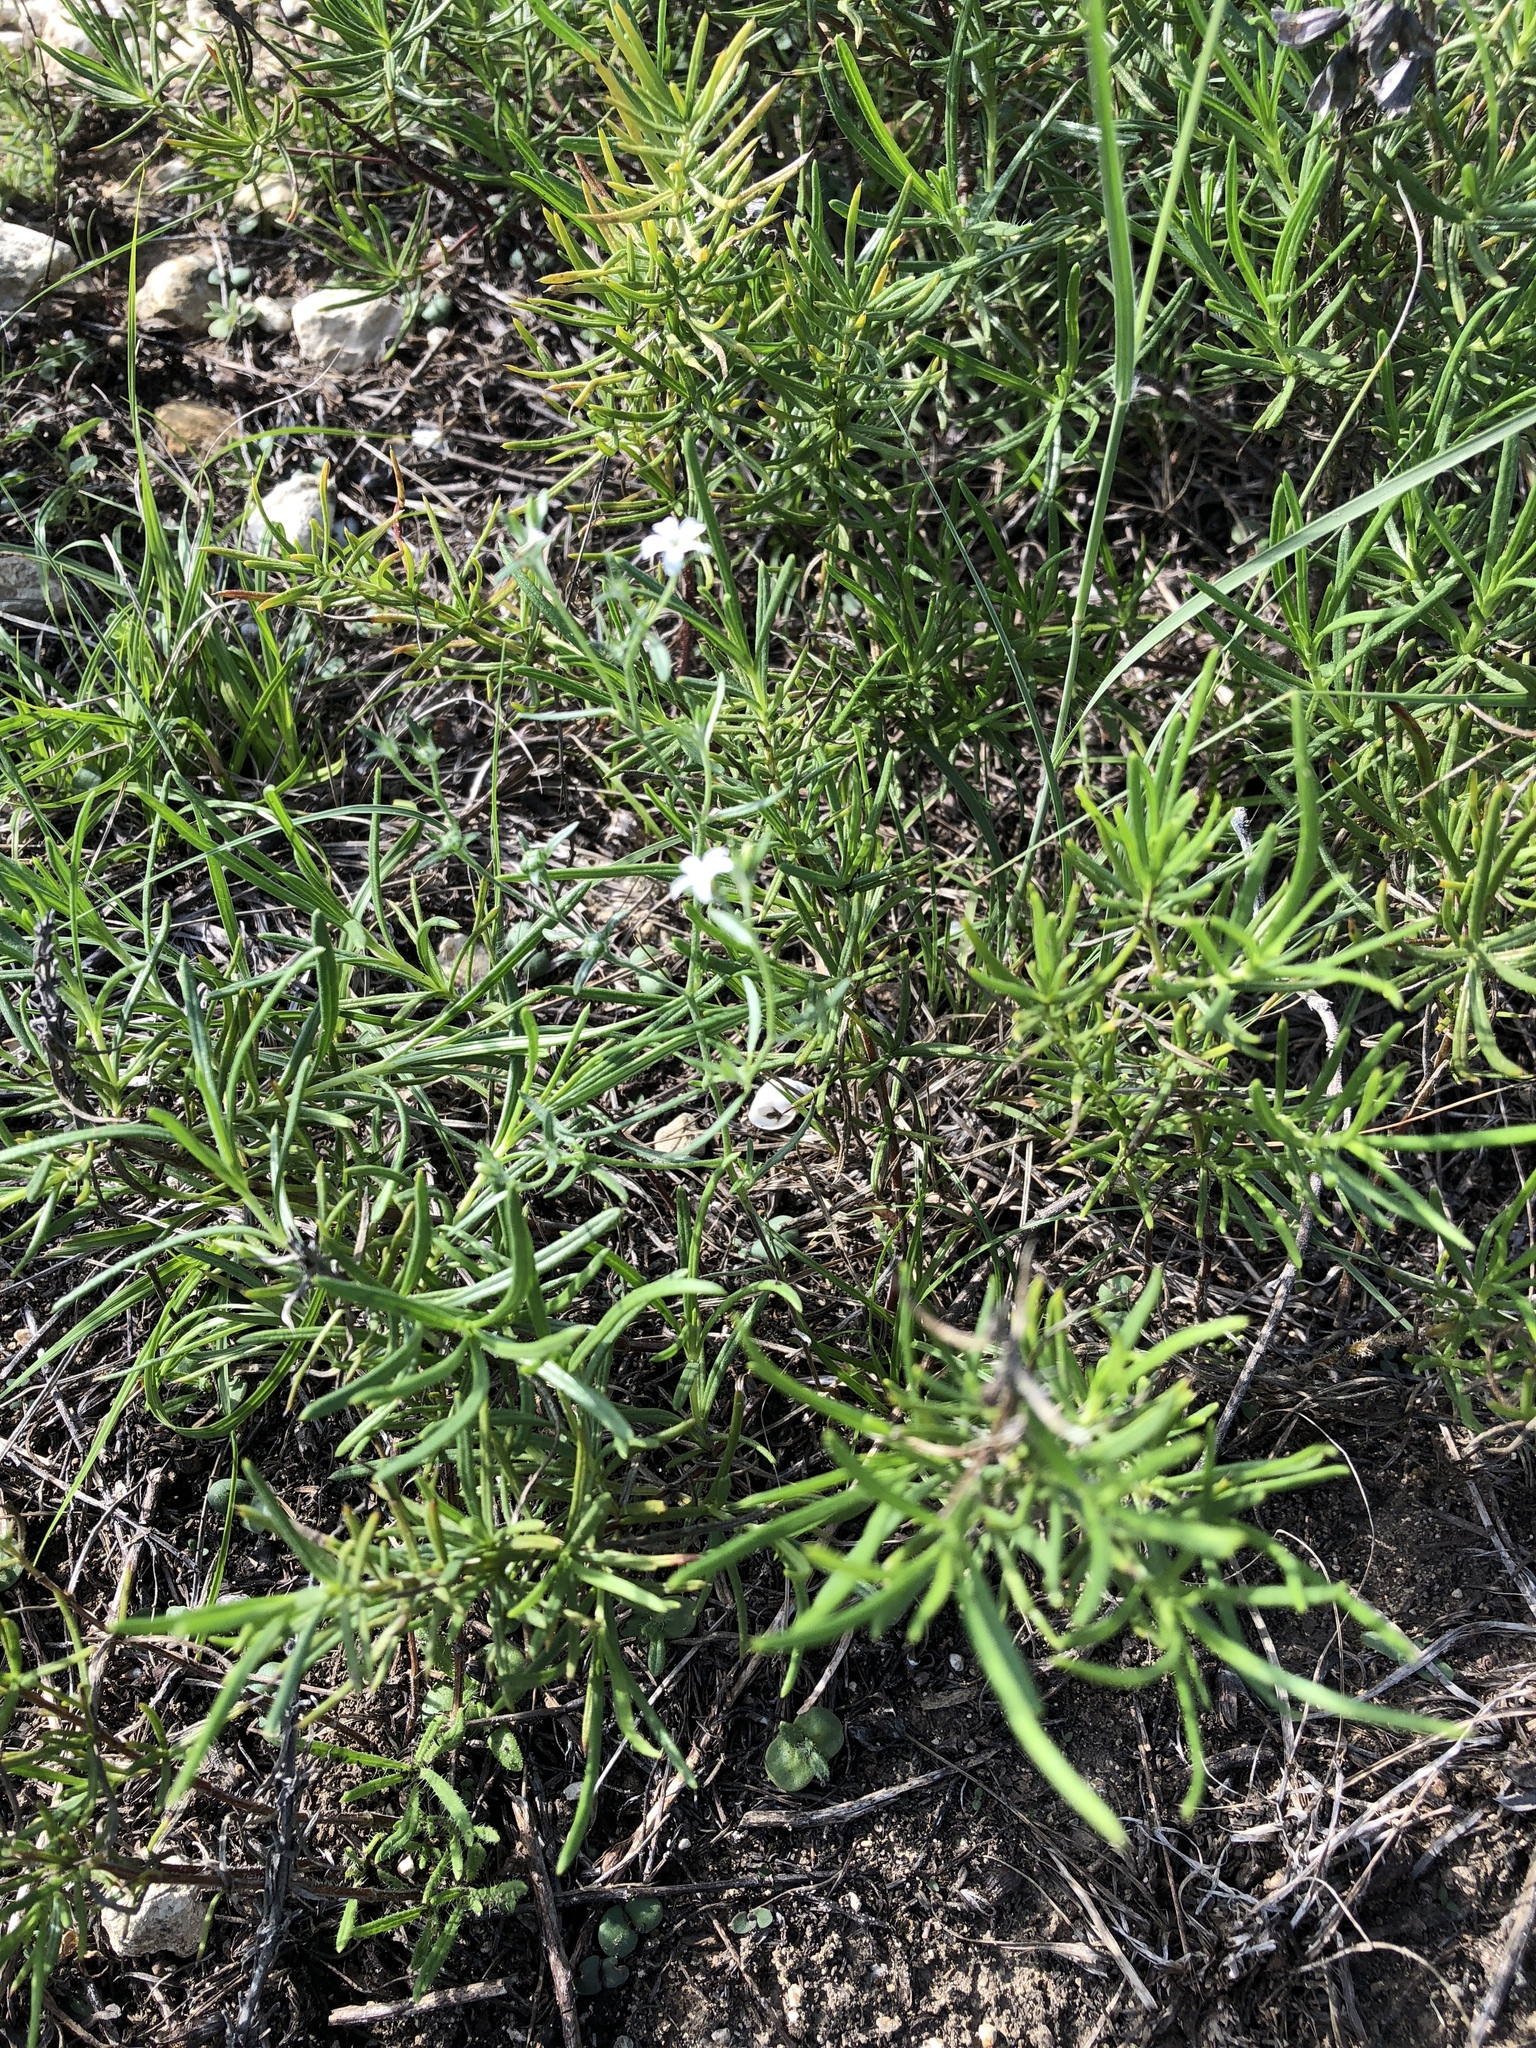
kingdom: Plantae
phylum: Tracheophyta
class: Magnoliopsida
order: Boraginales
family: Heliotropiaceae
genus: Euploca
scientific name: Euploca tenella
